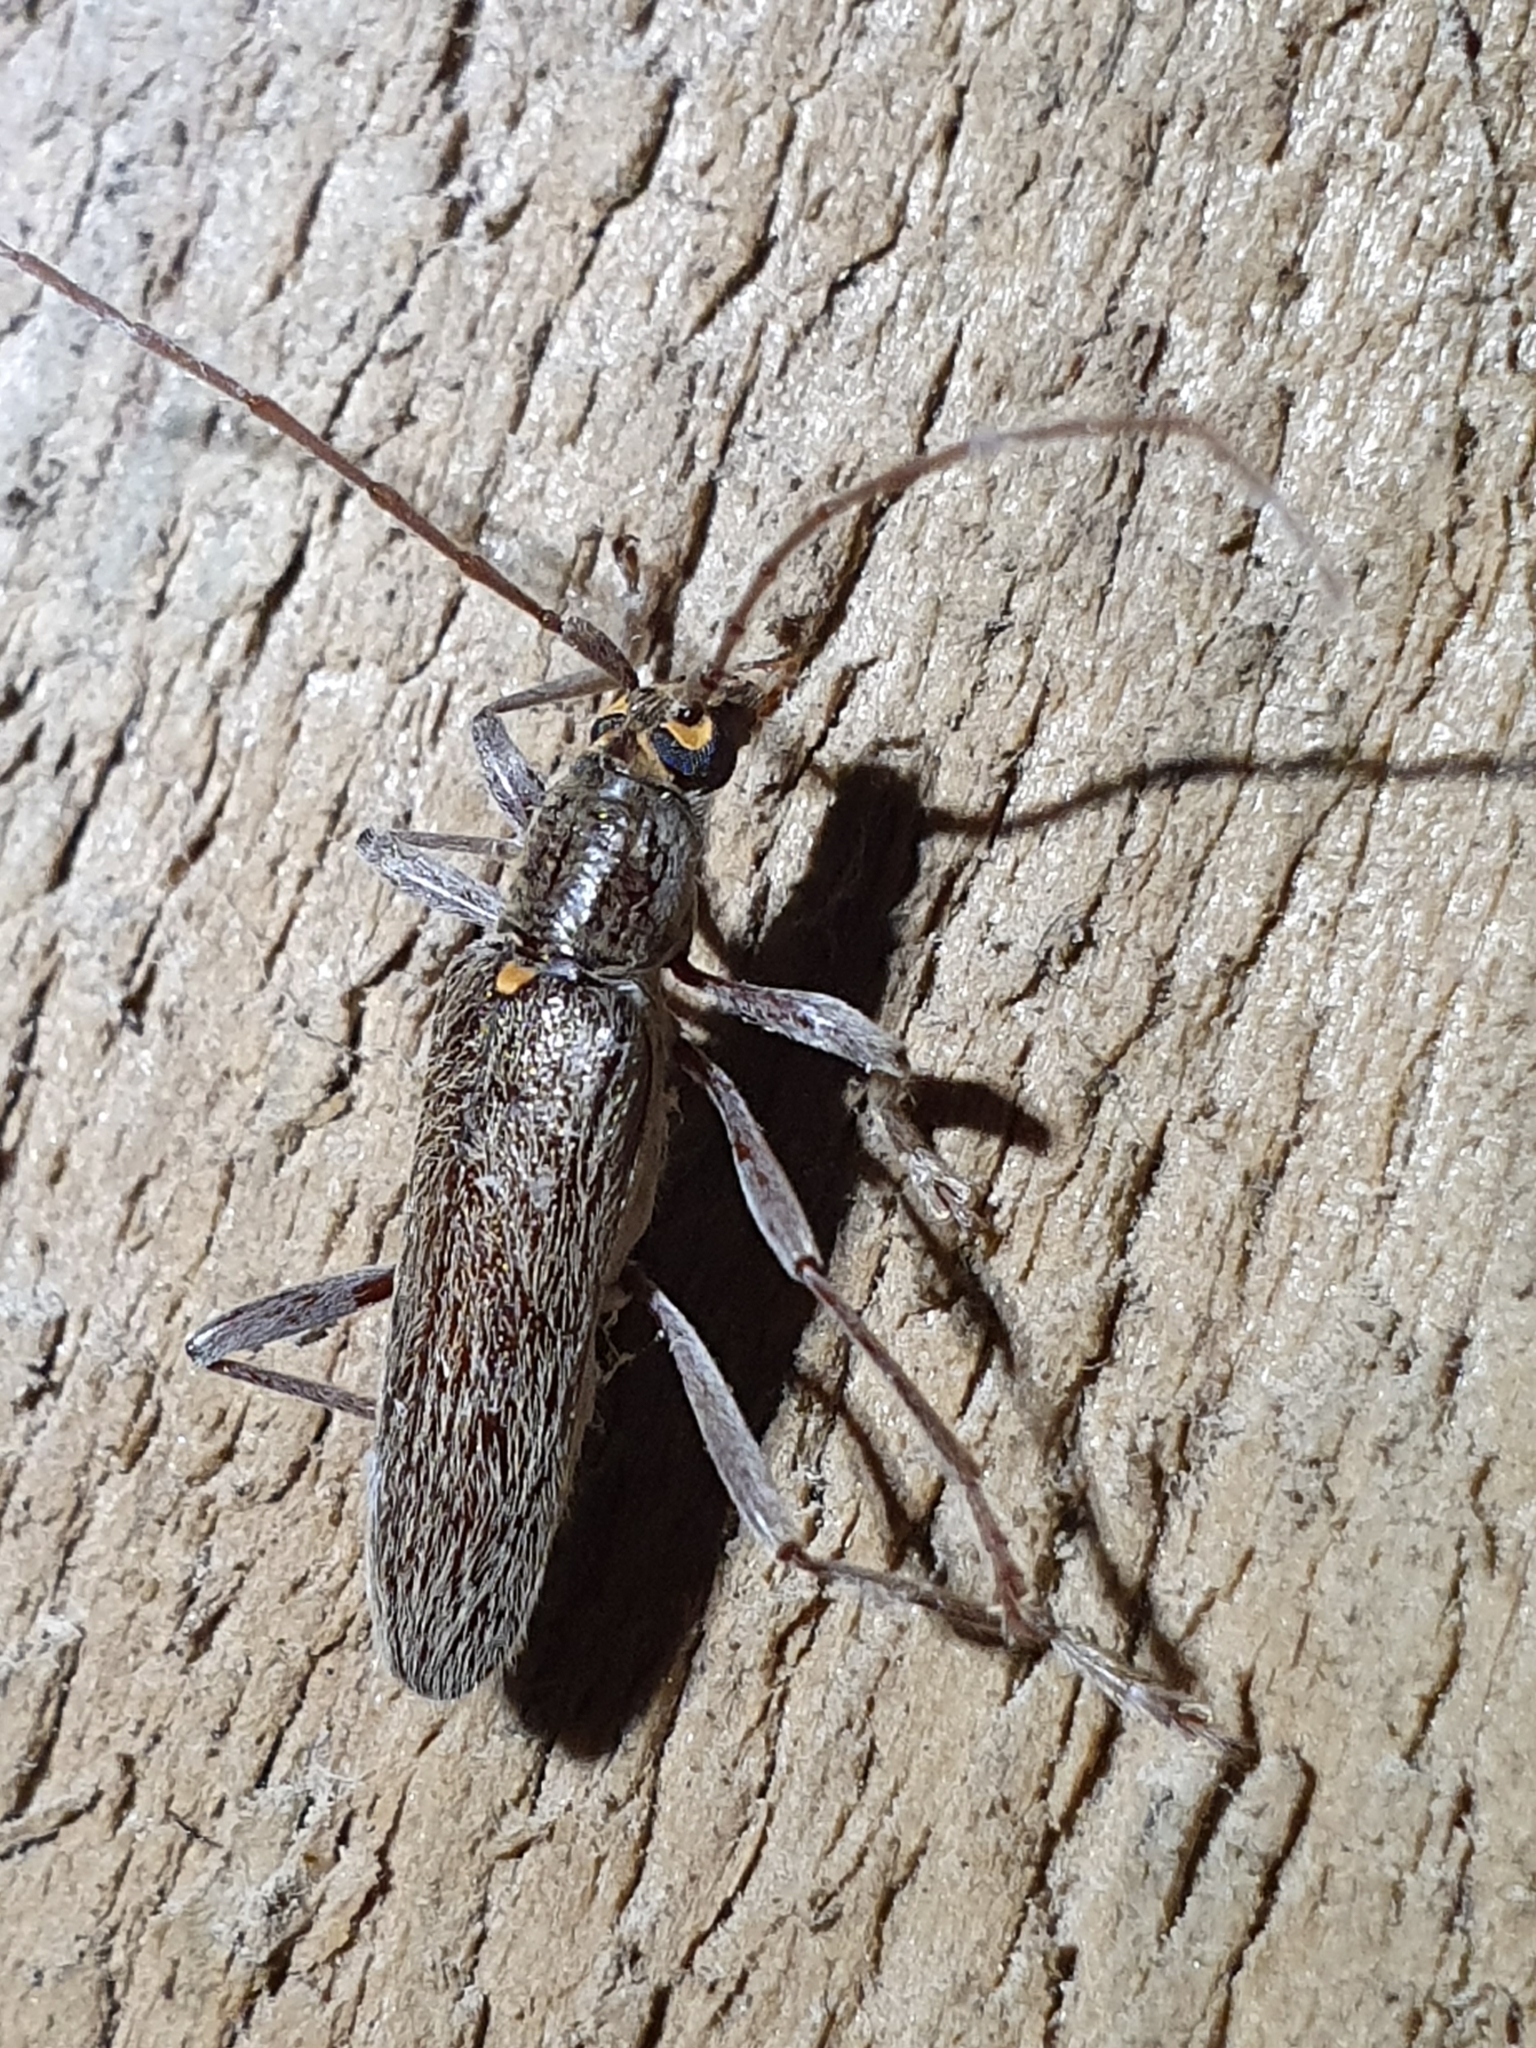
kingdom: Animalia
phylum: Arthropoda
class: Insecta
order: Coleoptera
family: Cerambycidae
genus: Oemona
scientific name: Oemona hirta
